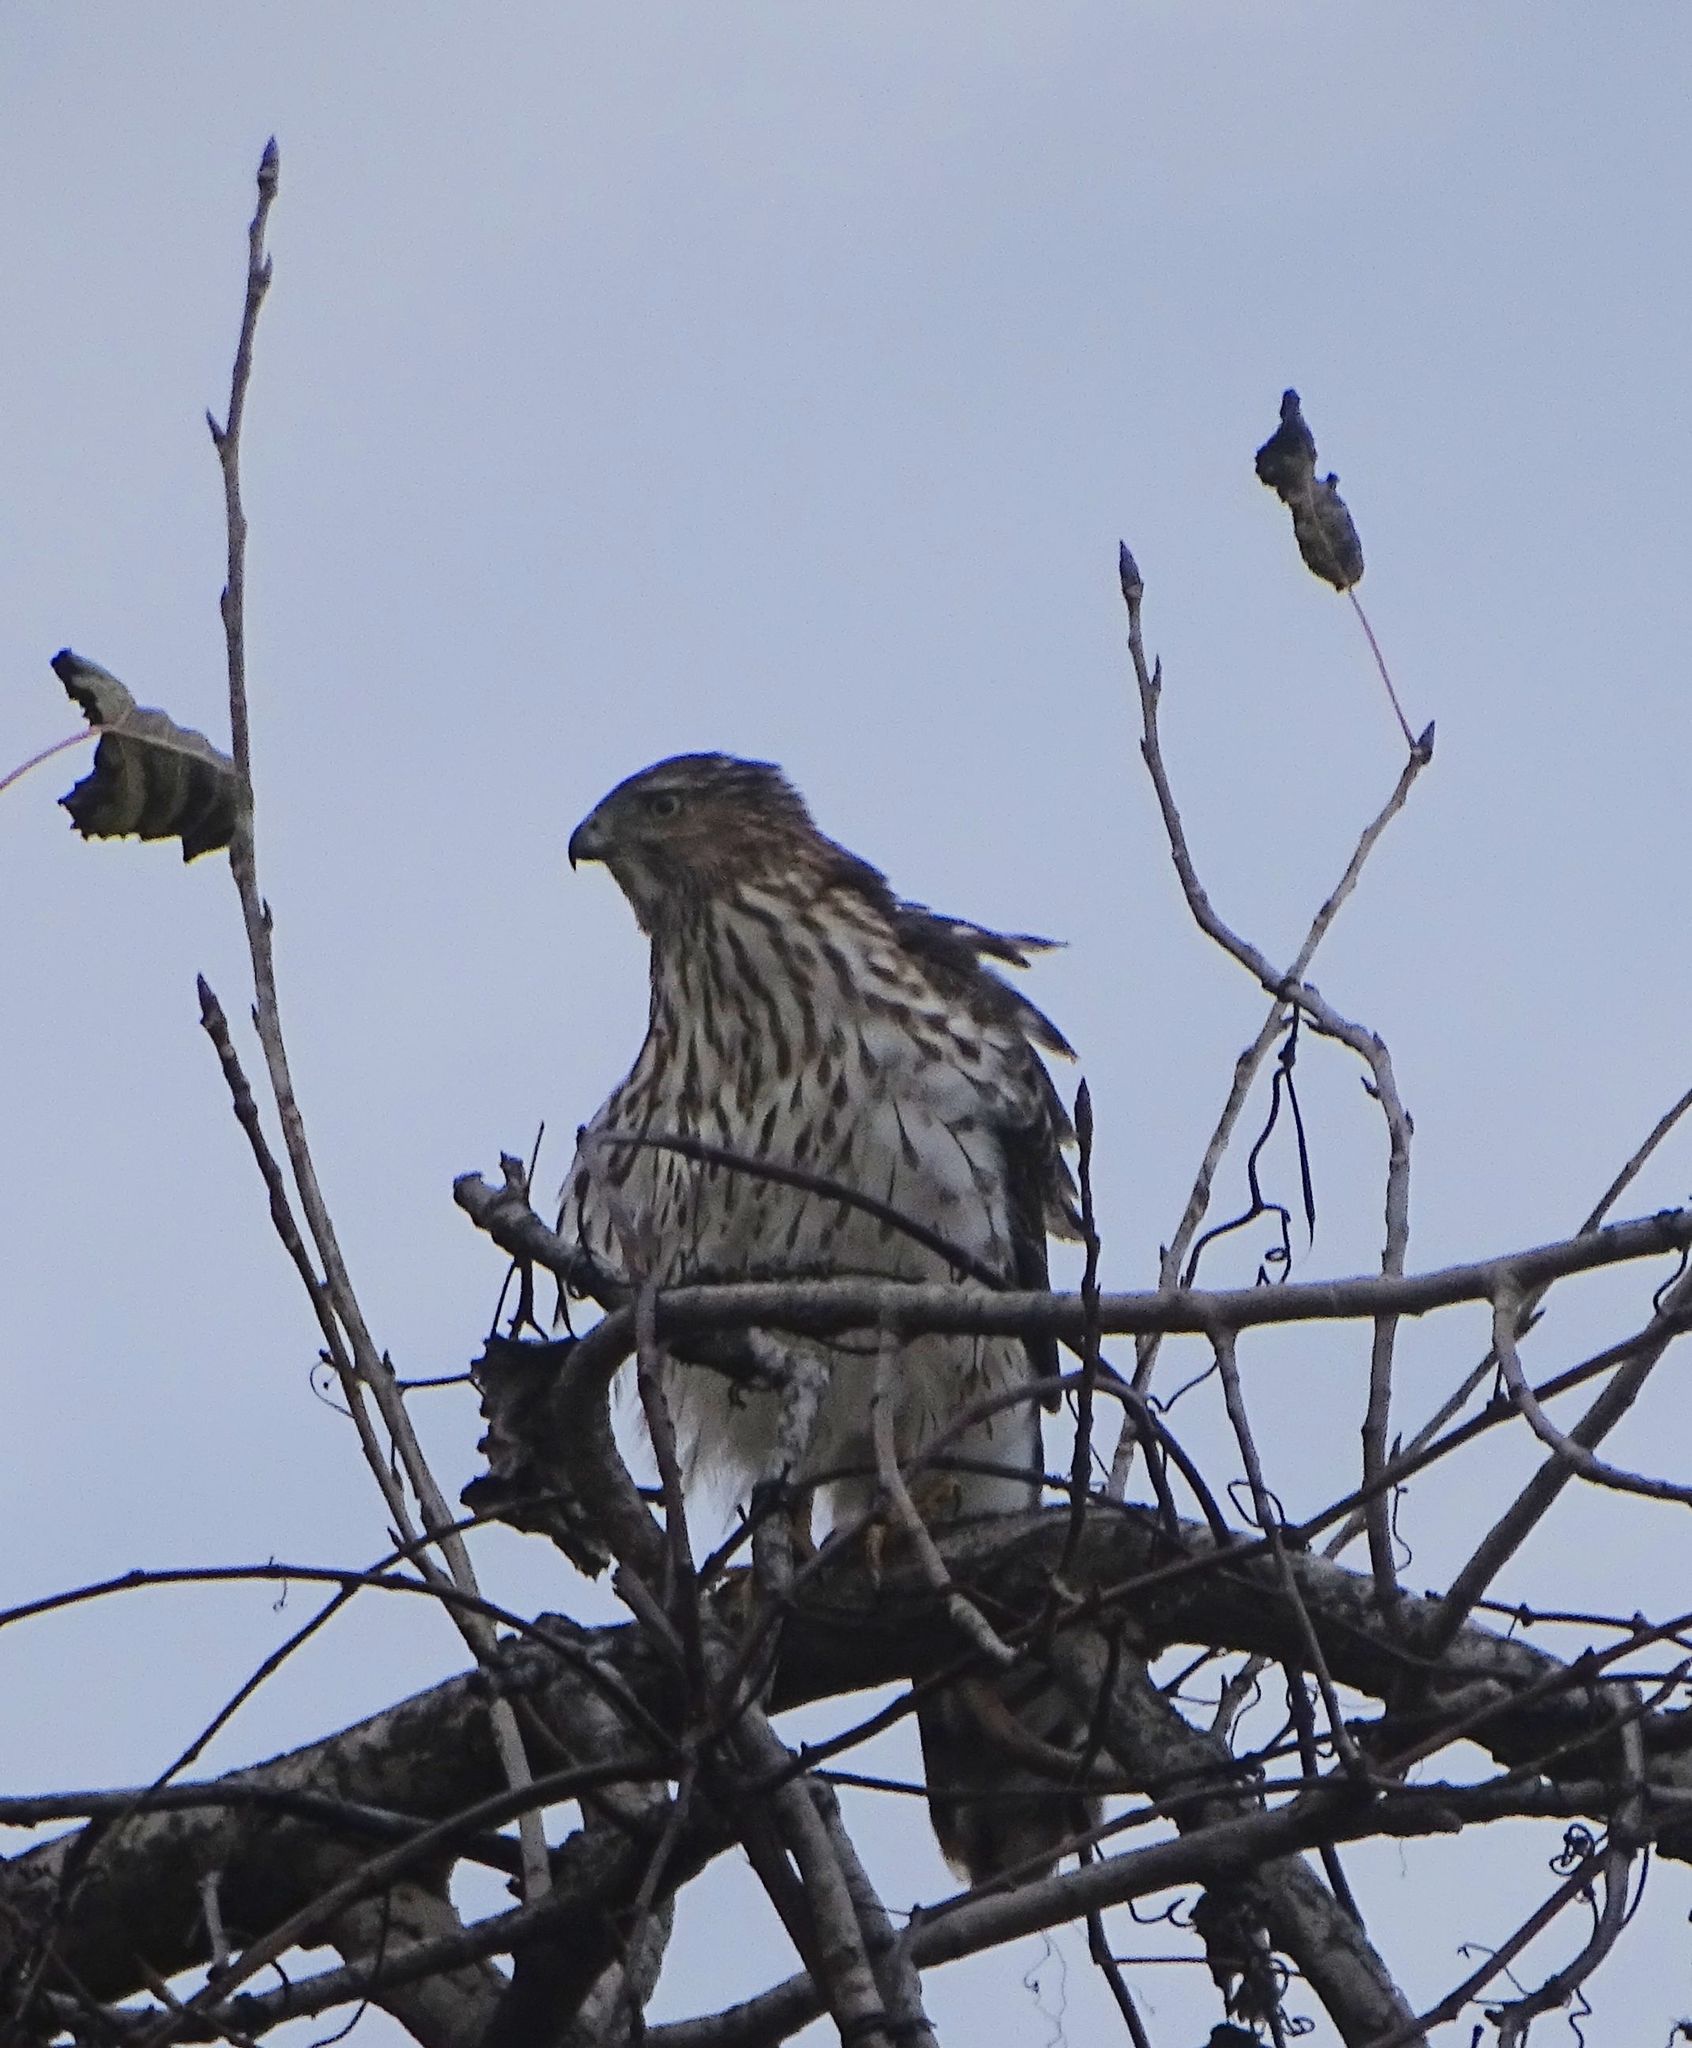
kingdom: Animalia
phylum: Chordata
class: Aves
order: Accipitriformes
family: Accipitridae
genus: Accipiter
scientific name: Accipiter cooperii
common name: Cooper's hawk
